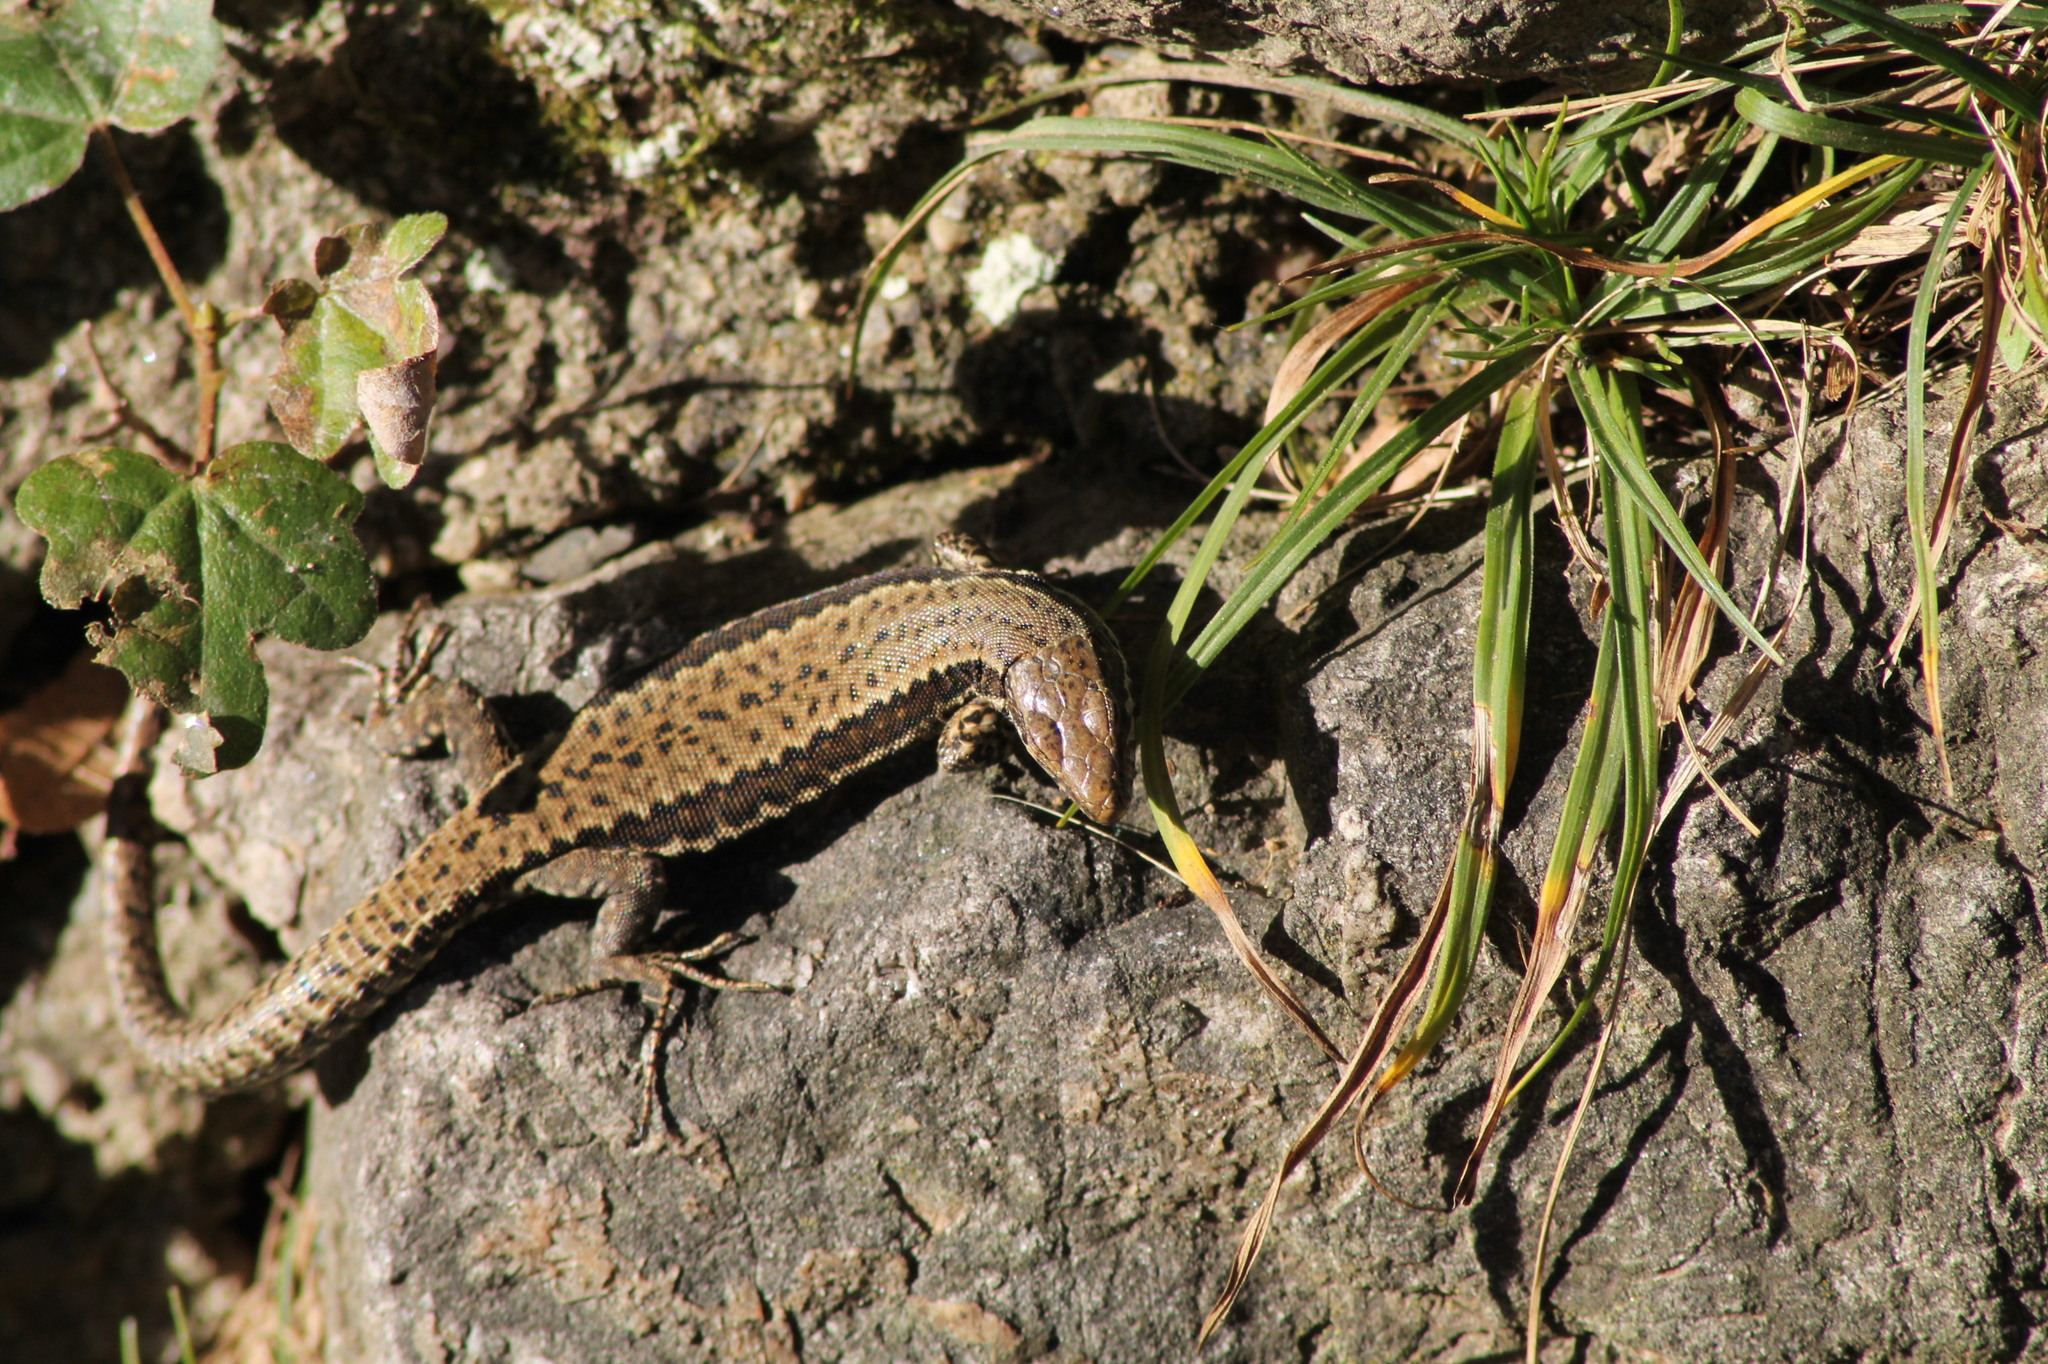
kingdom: Animalia
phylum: Chordata
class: Squamata
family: Lacertidae
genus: Podarcis
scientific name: Podarcis muralis
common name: Common wall lizard
